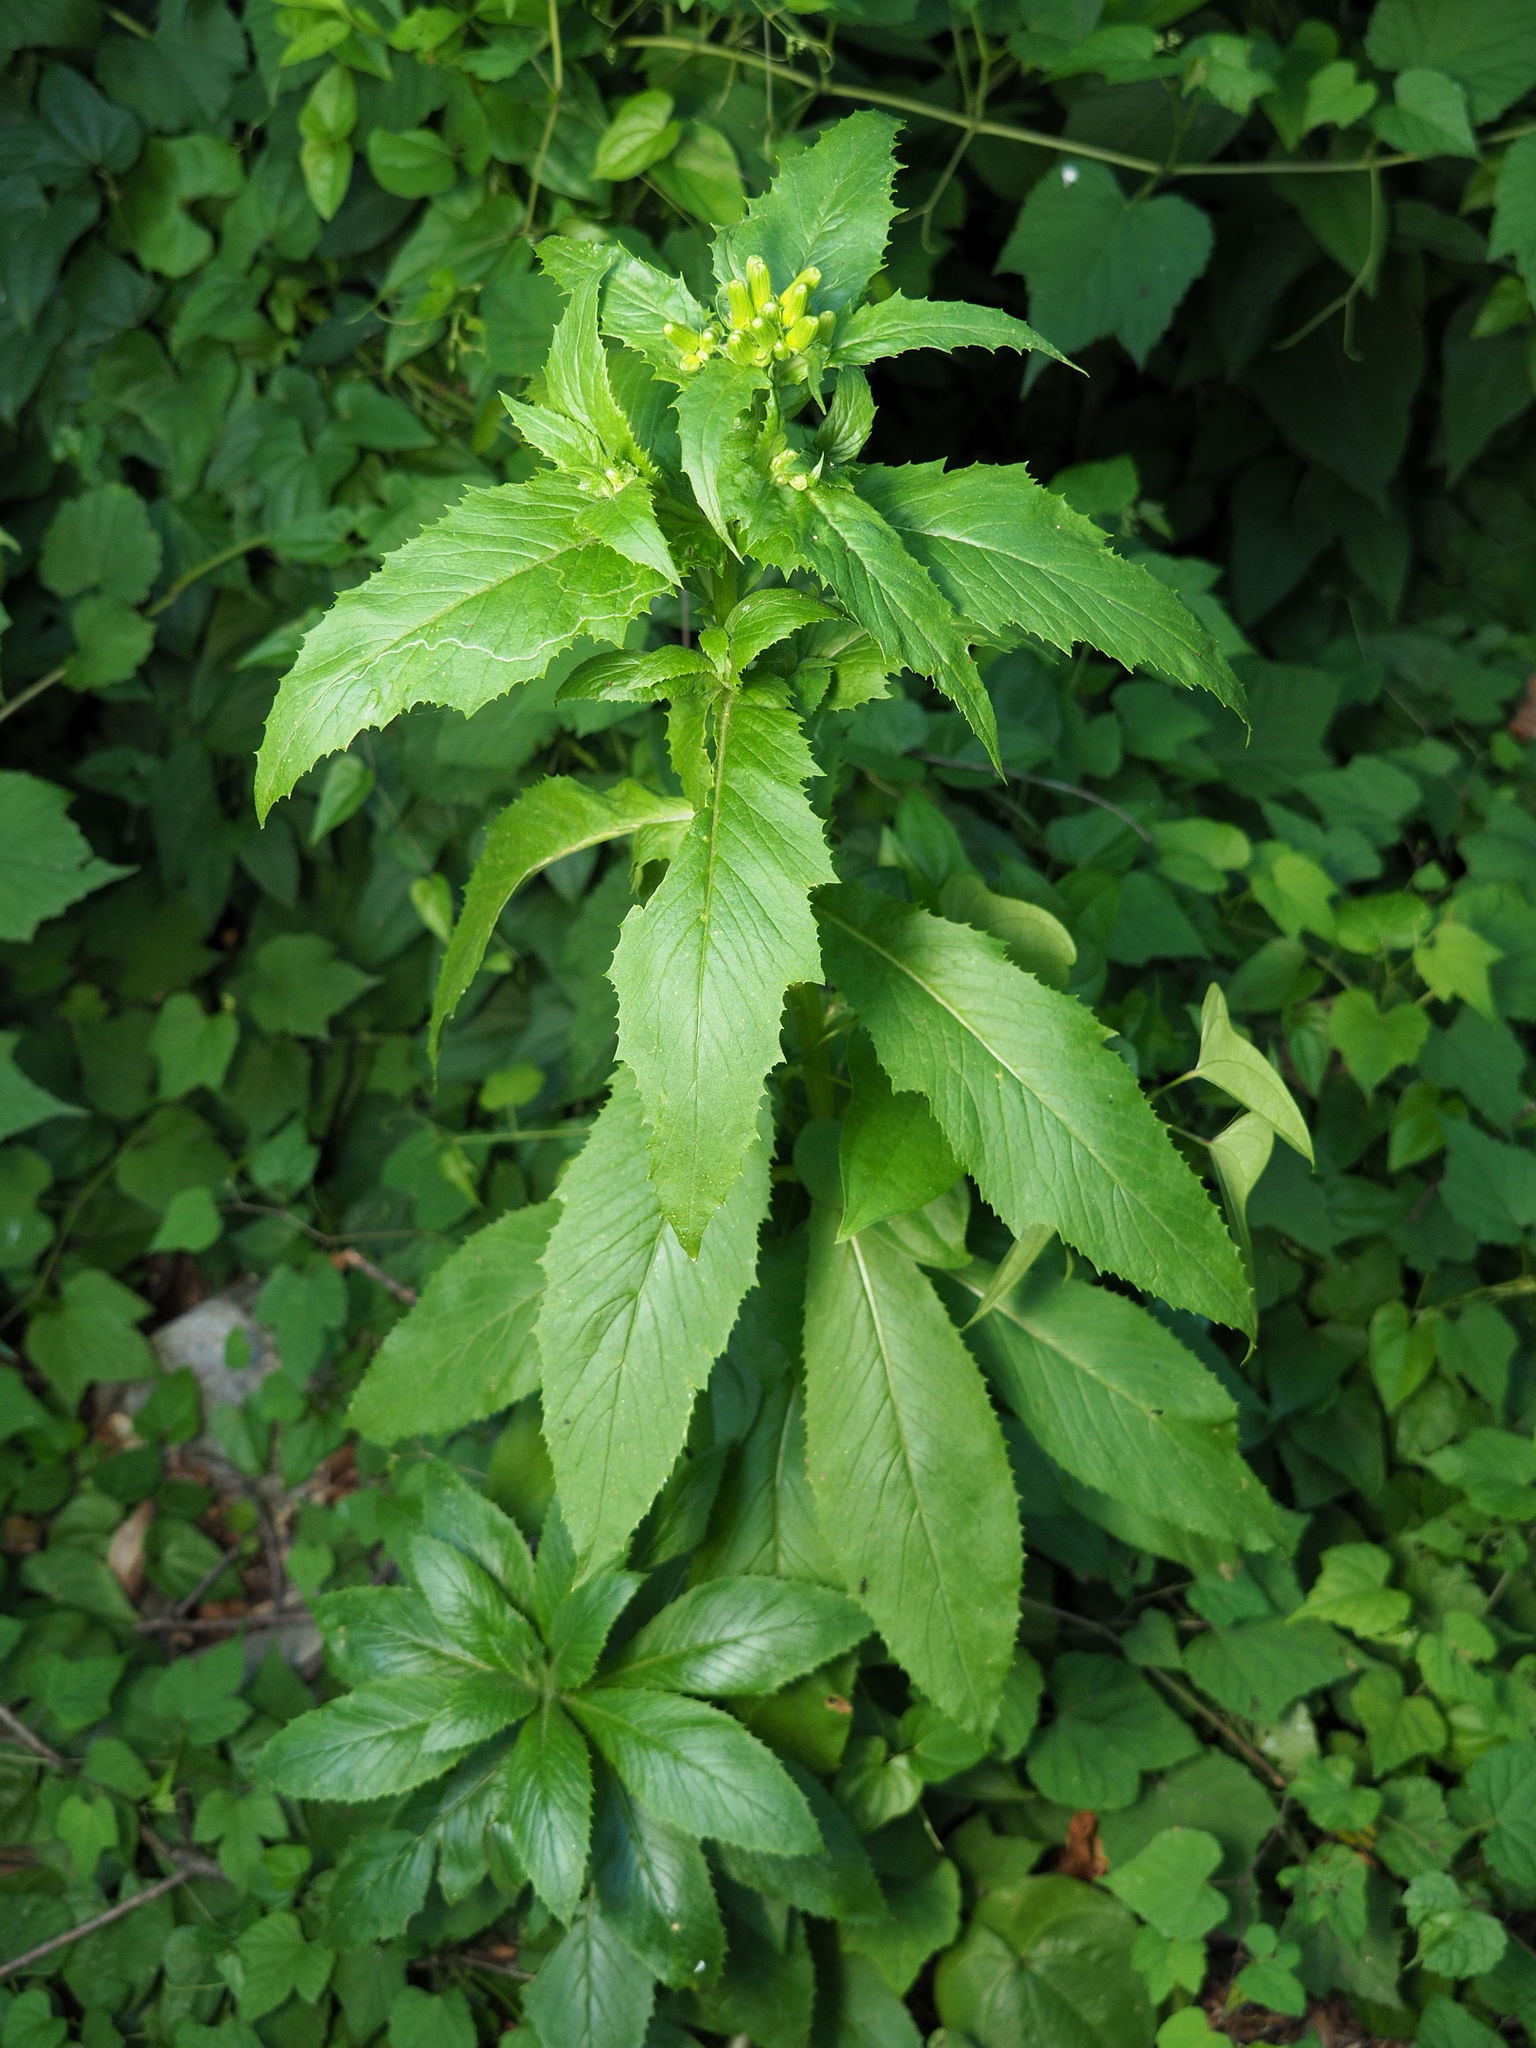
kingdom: Plantae
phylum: Tracheophyta
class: Magnoliopsida
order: Asterales
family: Asteraceae
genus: Erechtites
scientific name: Erechtites hieraciifolius
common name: American burnweed
